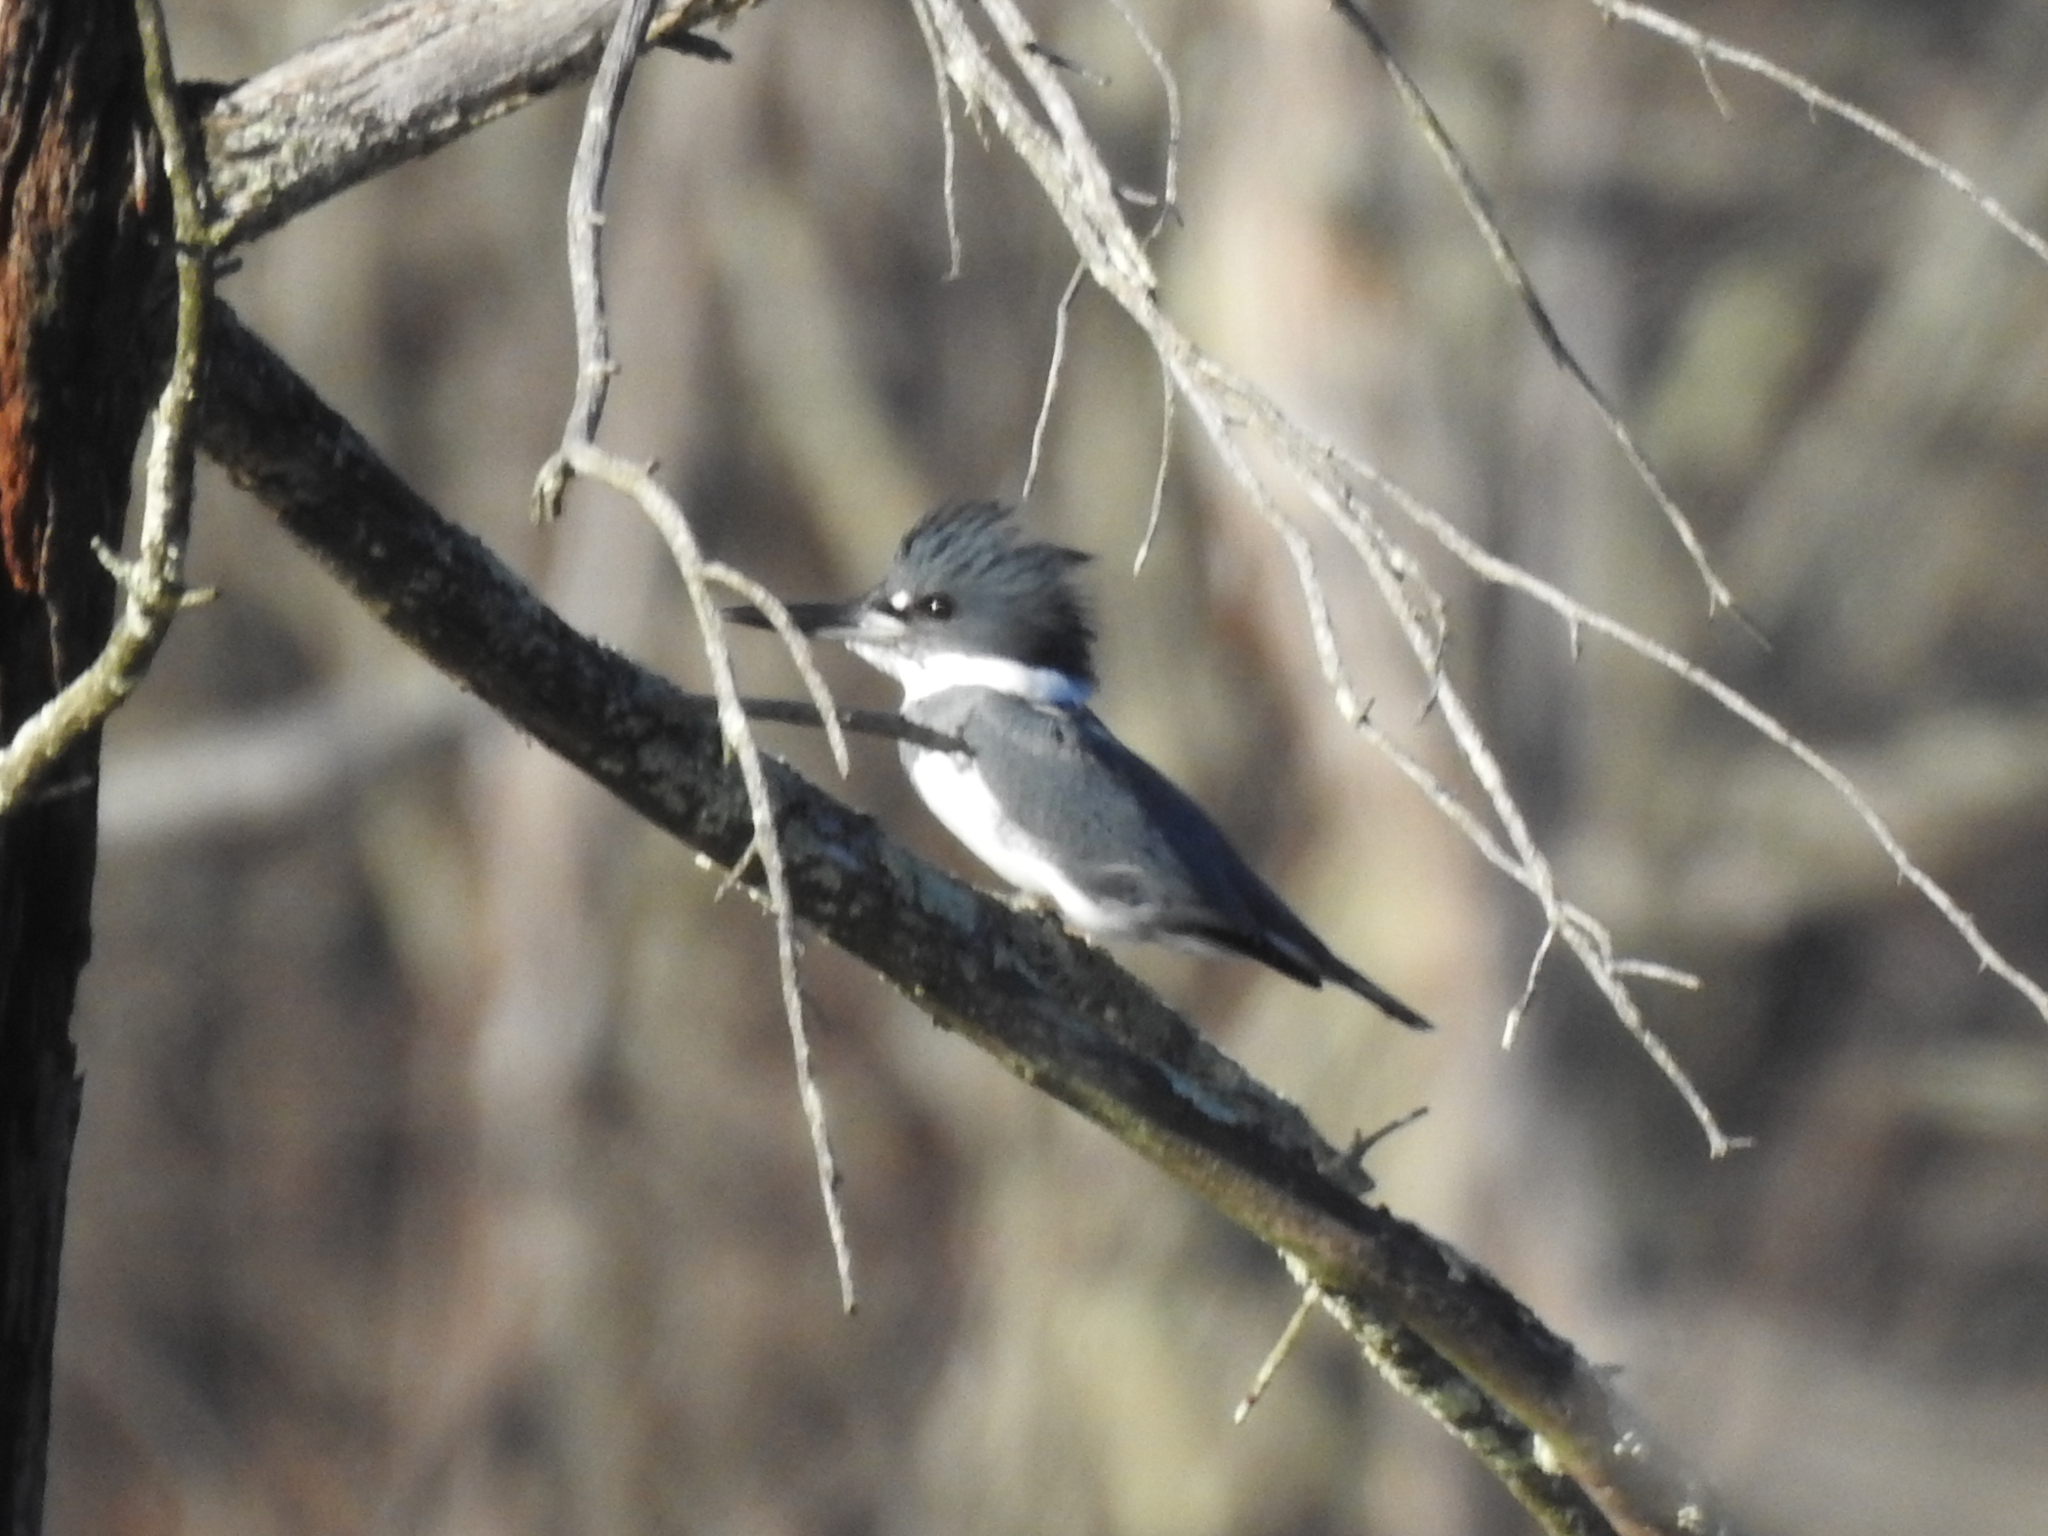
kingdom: Animalia
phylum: Chordata
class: Aves
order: Coraciiformes
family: Alcedinidae
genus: Megaceryle
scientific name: Megaceryle alcyon
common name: Belted kingfisher
